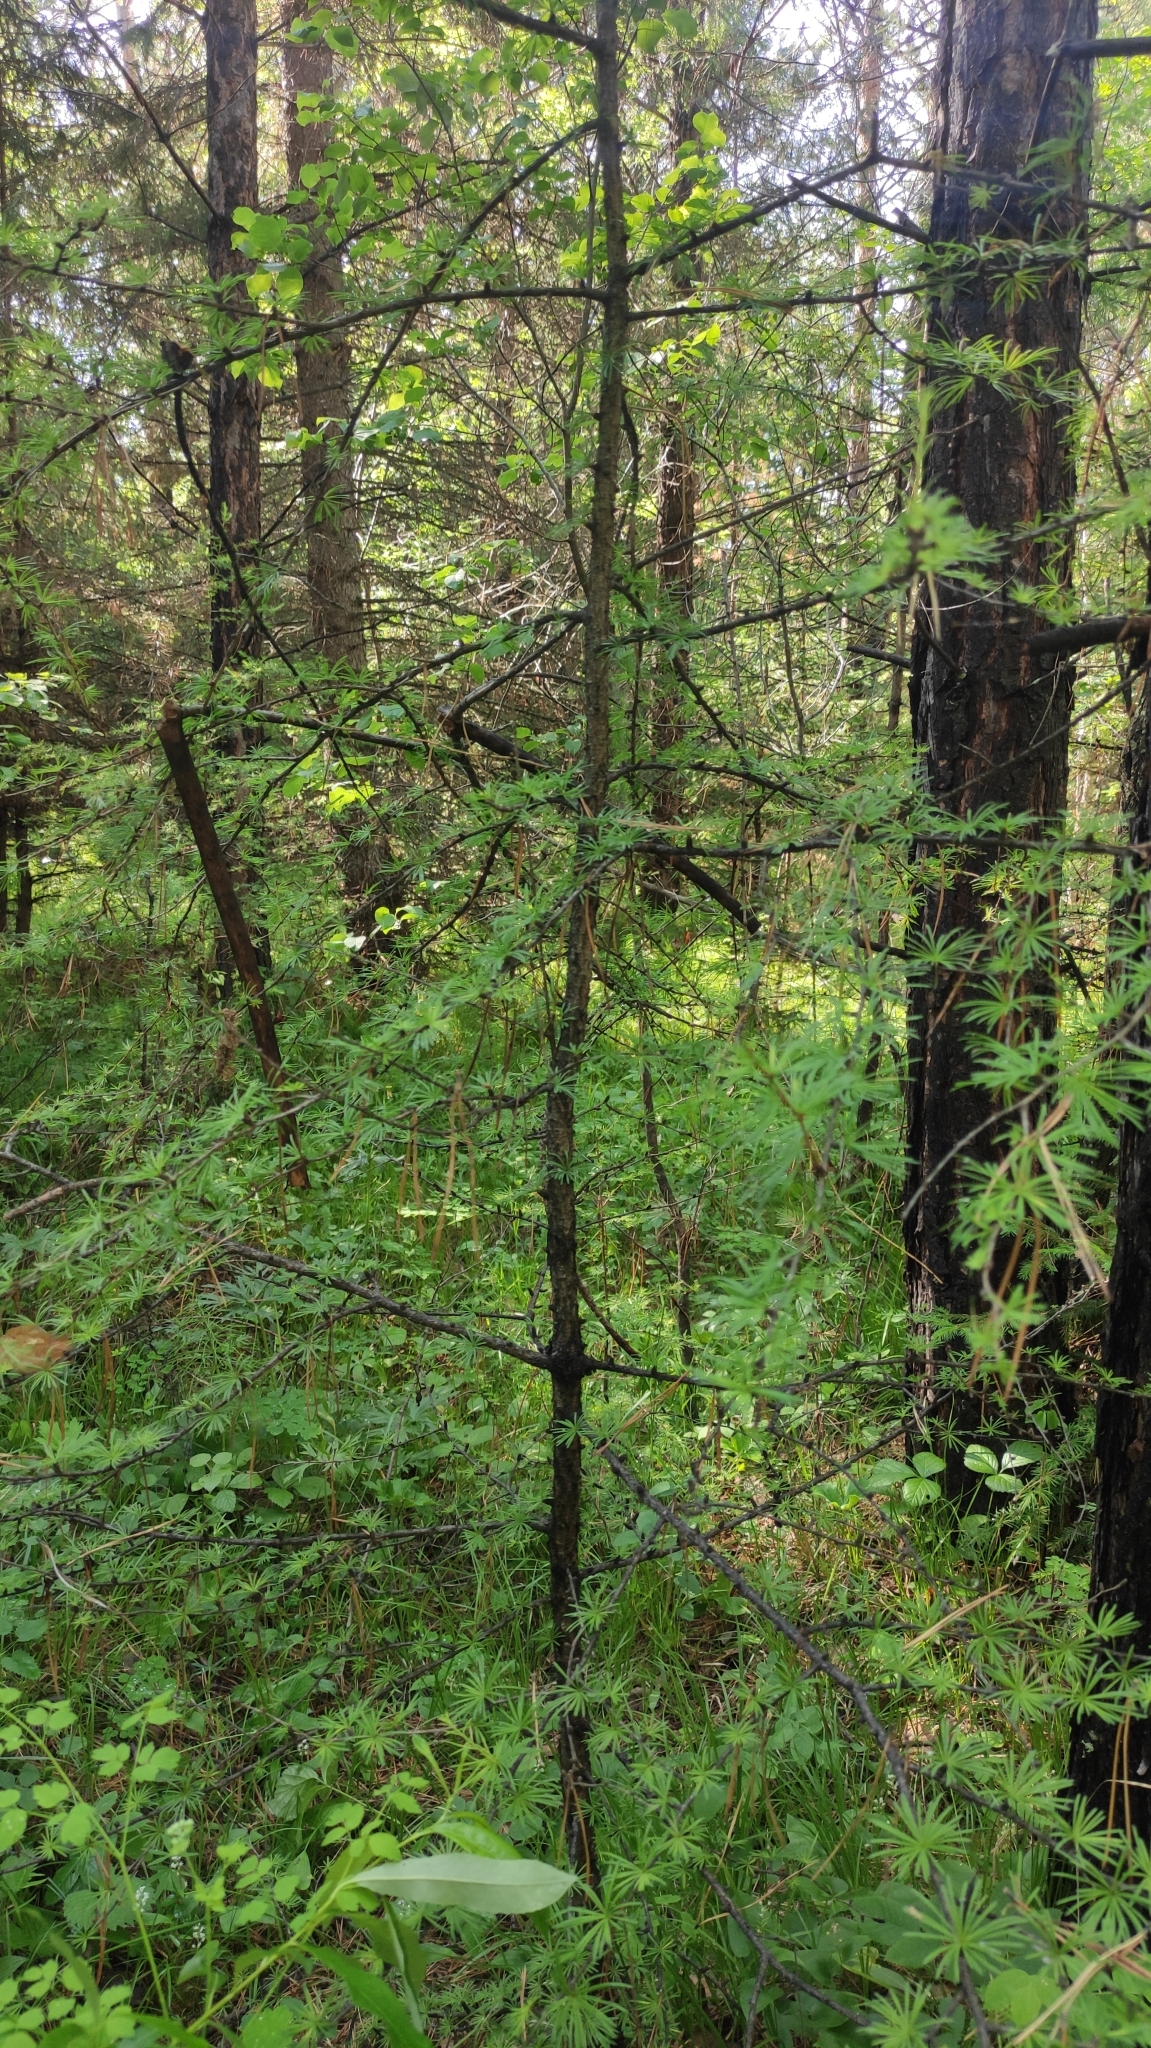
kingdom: Plantae
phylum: Tracheophyta
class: Pinopsida
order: Pinales
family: Pinaceae
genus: Larix
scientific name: Larix sibirica
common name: Siberian larch
